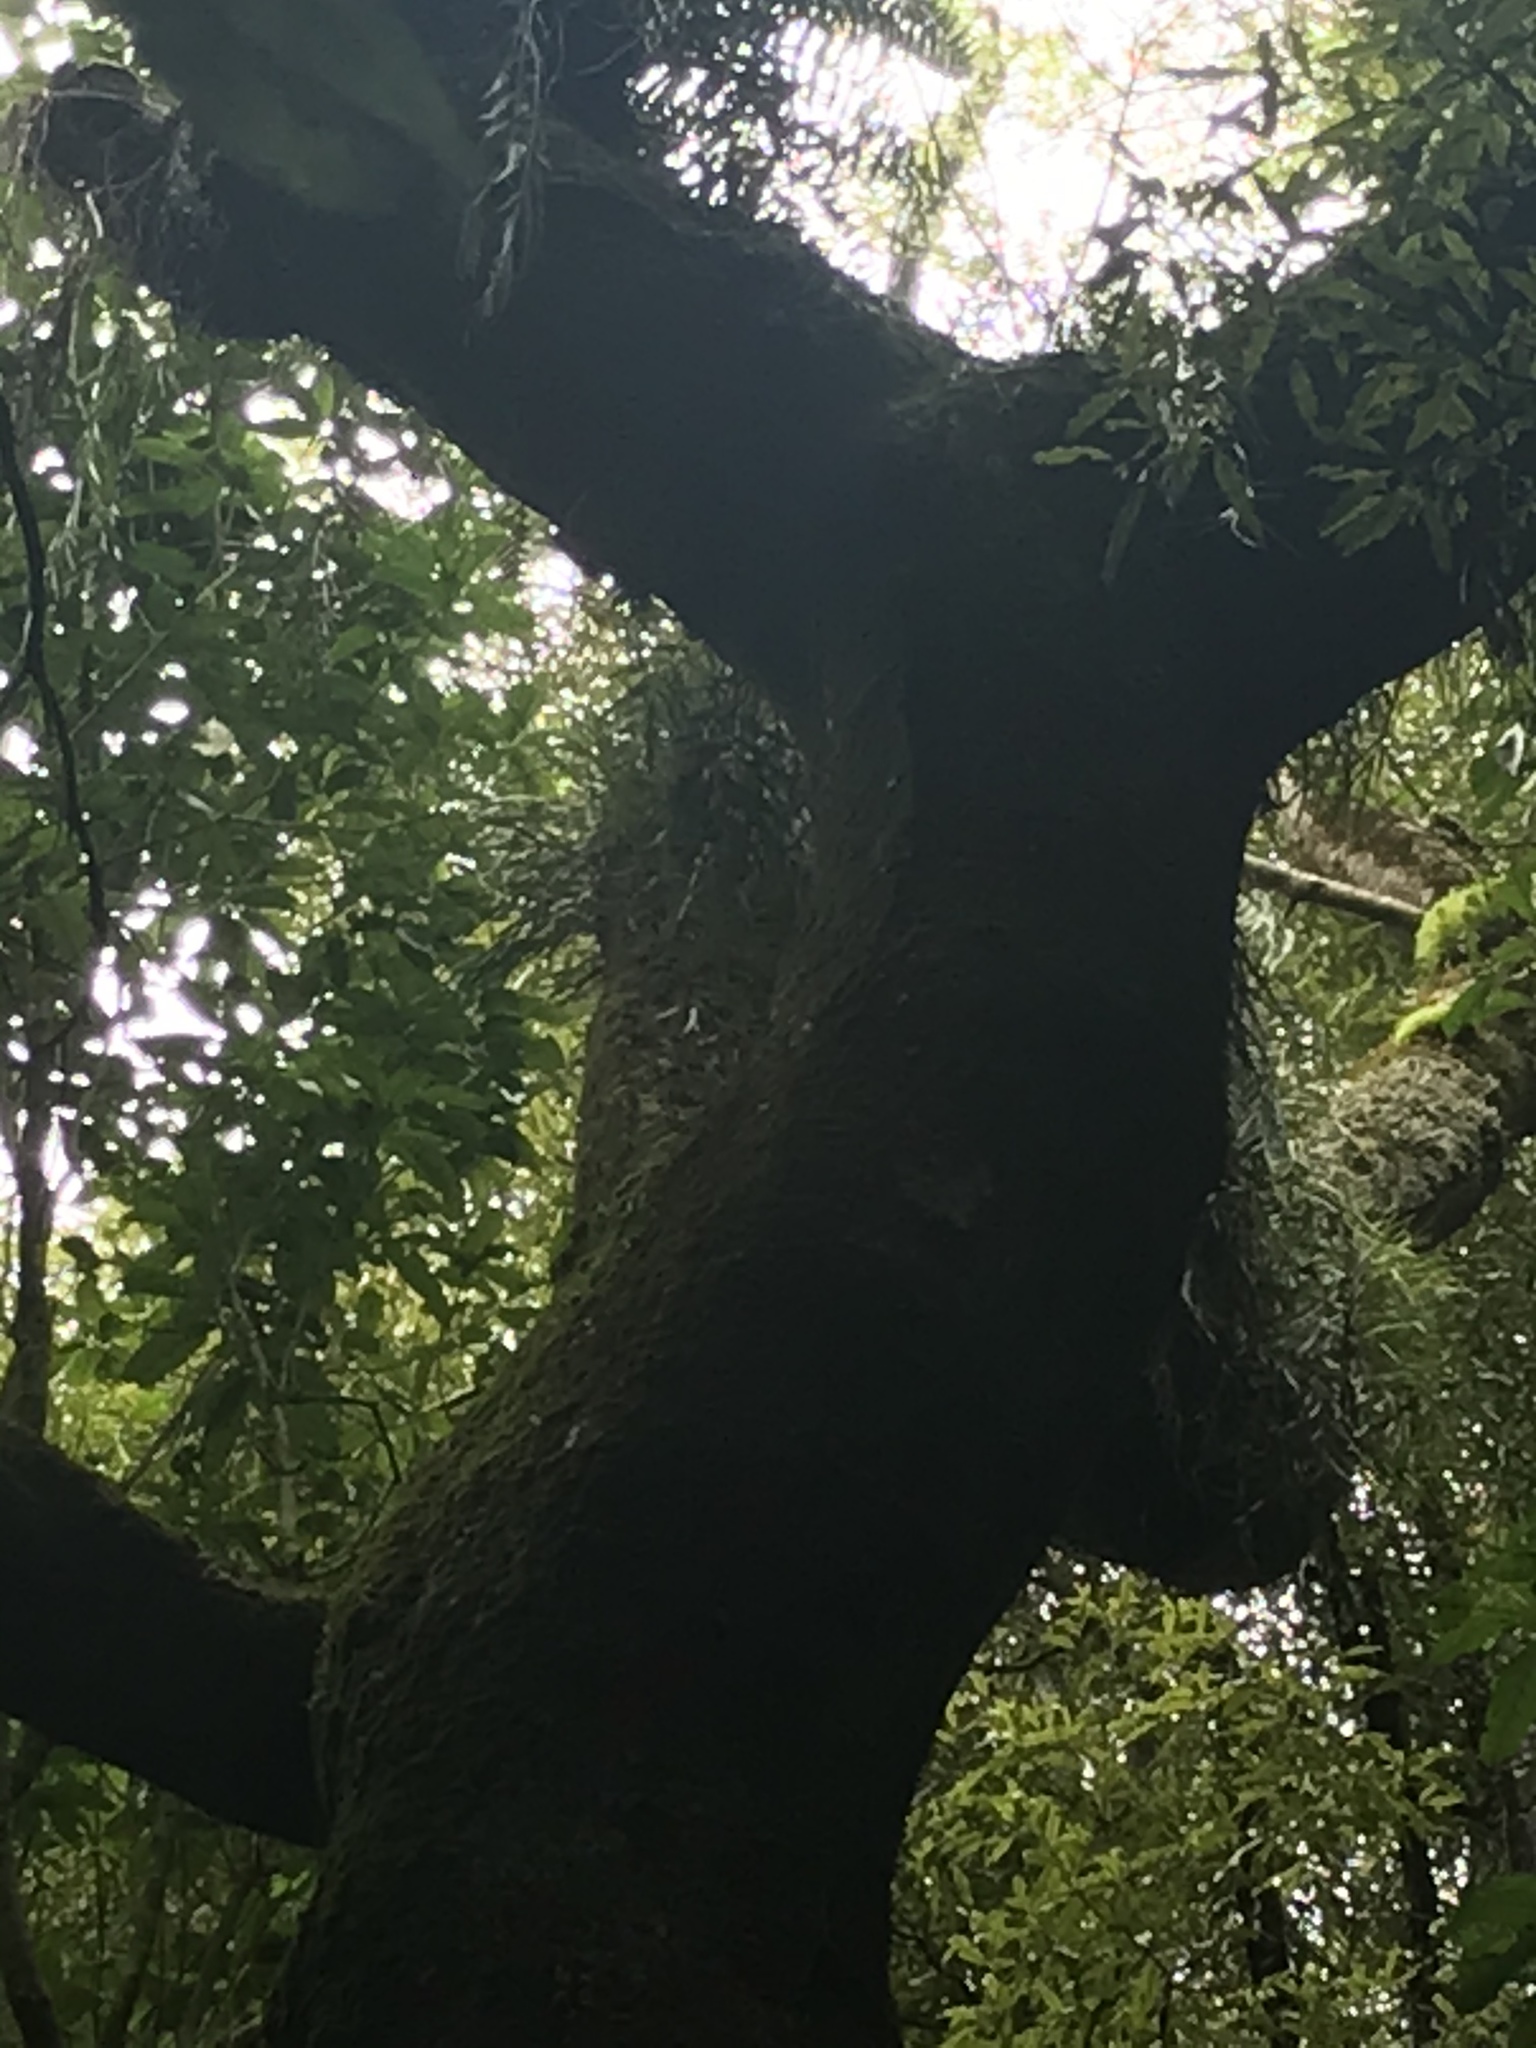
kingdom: Plantae
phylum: Tracheophyta
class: Liliopsida
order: Asparagales
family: Orchidaceae
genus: Earina
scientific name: Earina mucronata
